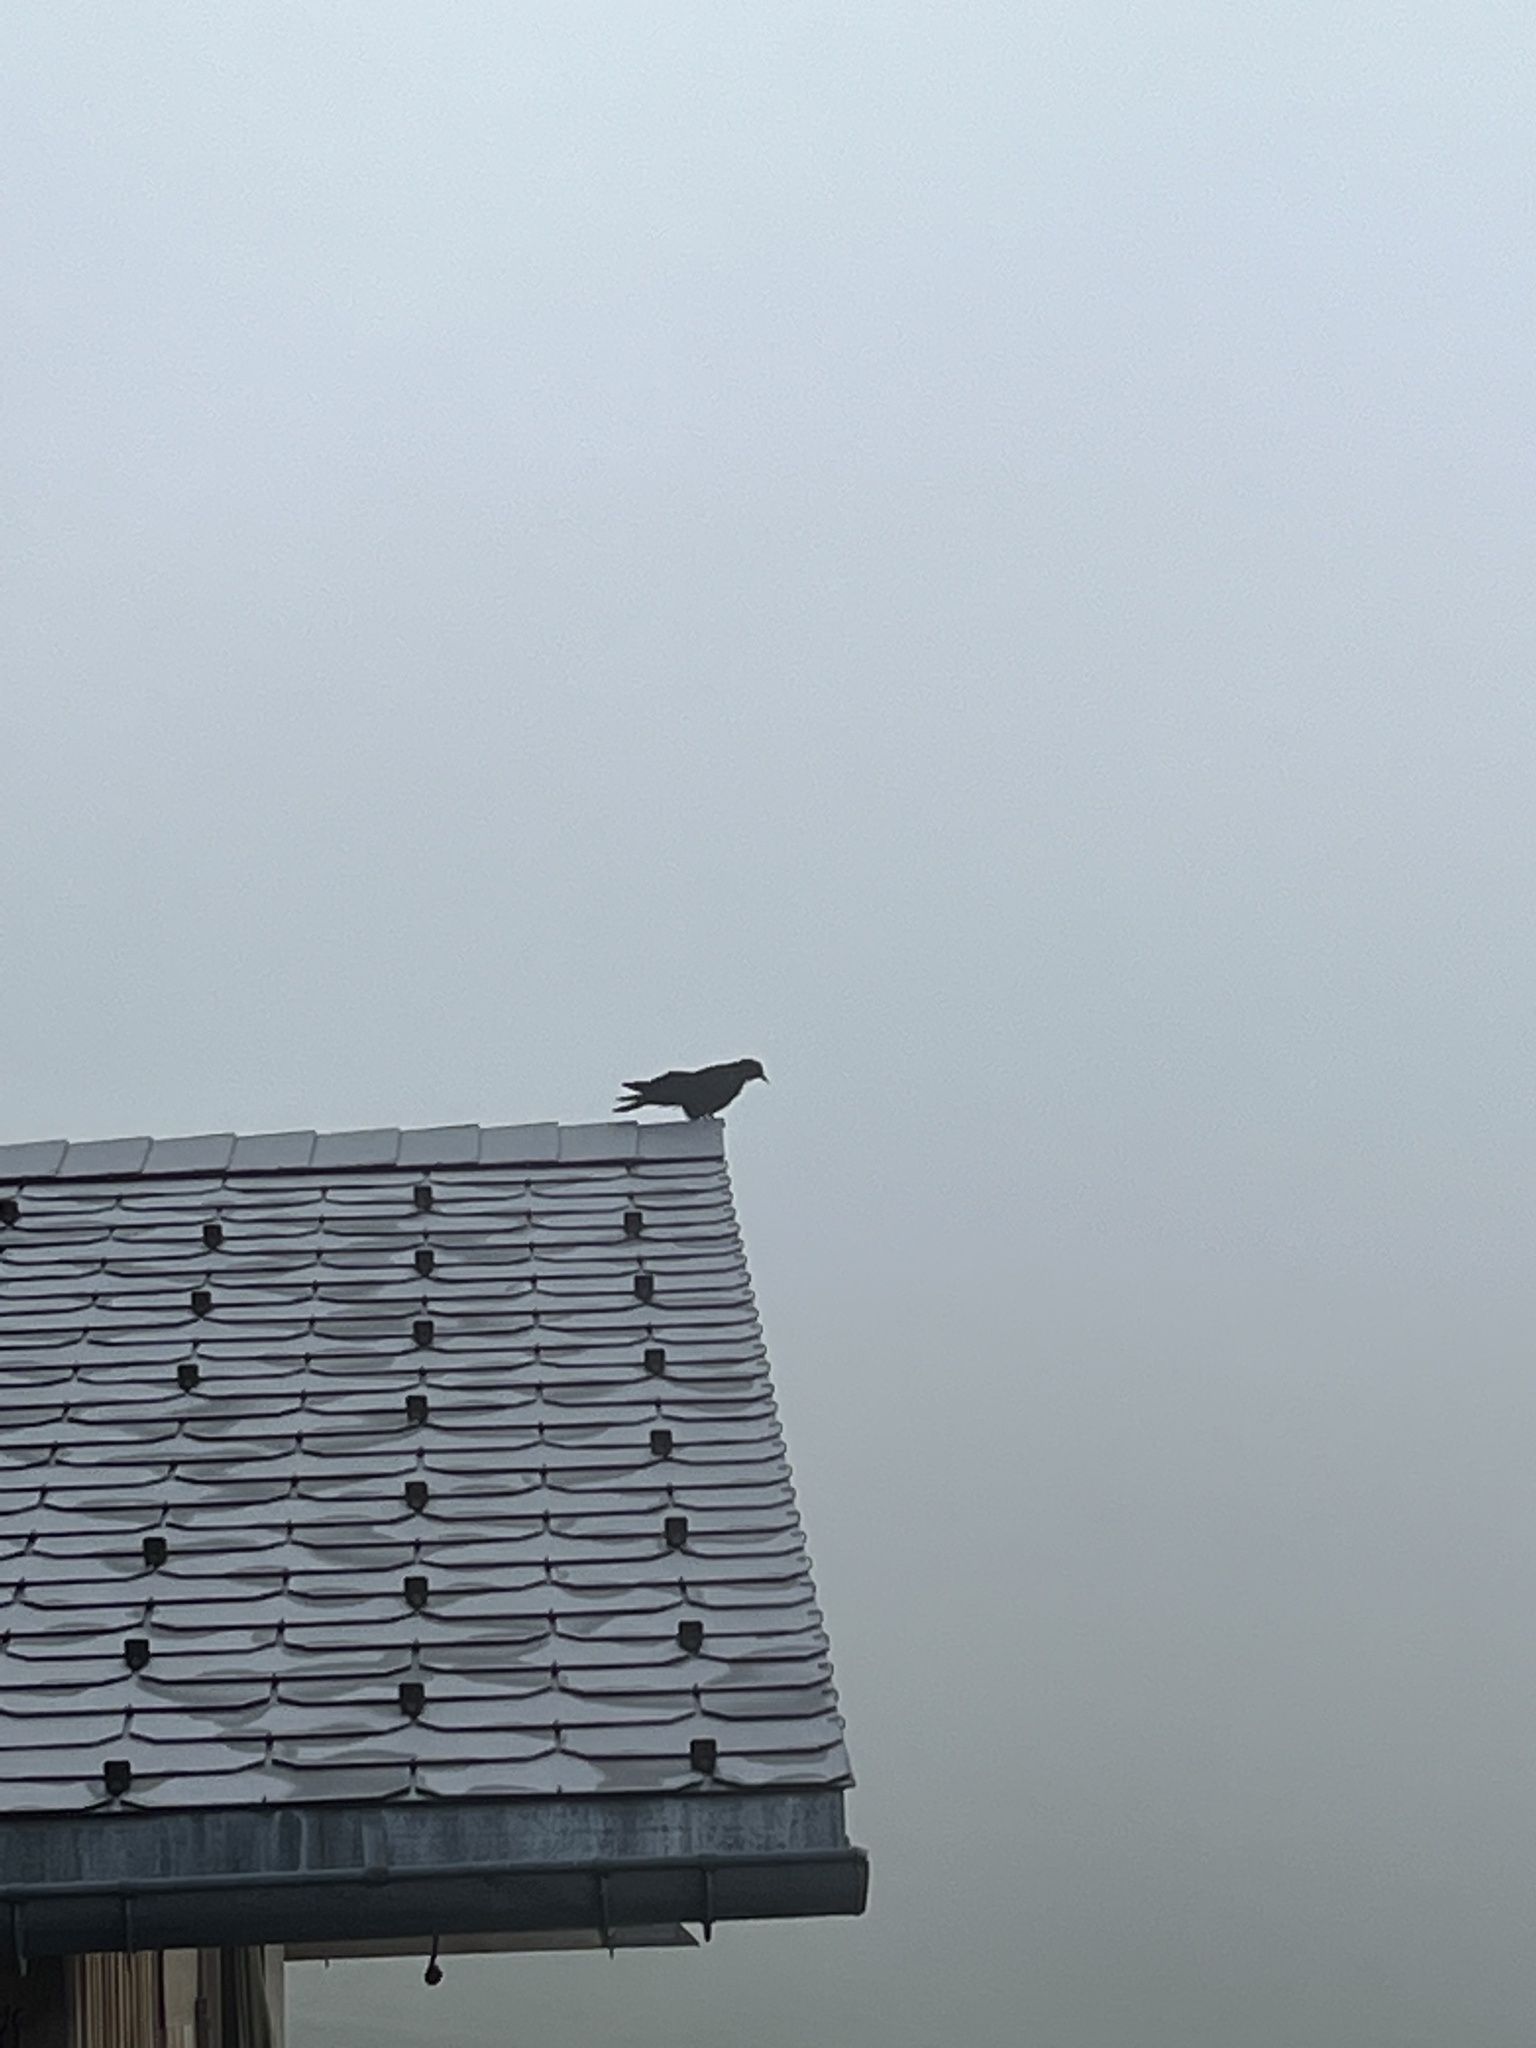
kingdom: Animalia
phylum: Chordata
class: Aves
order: Passeriformes
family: Corvidae
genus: Pyrrhocorax
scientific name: Pyrrhocorax graculus
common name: Alpine chough
